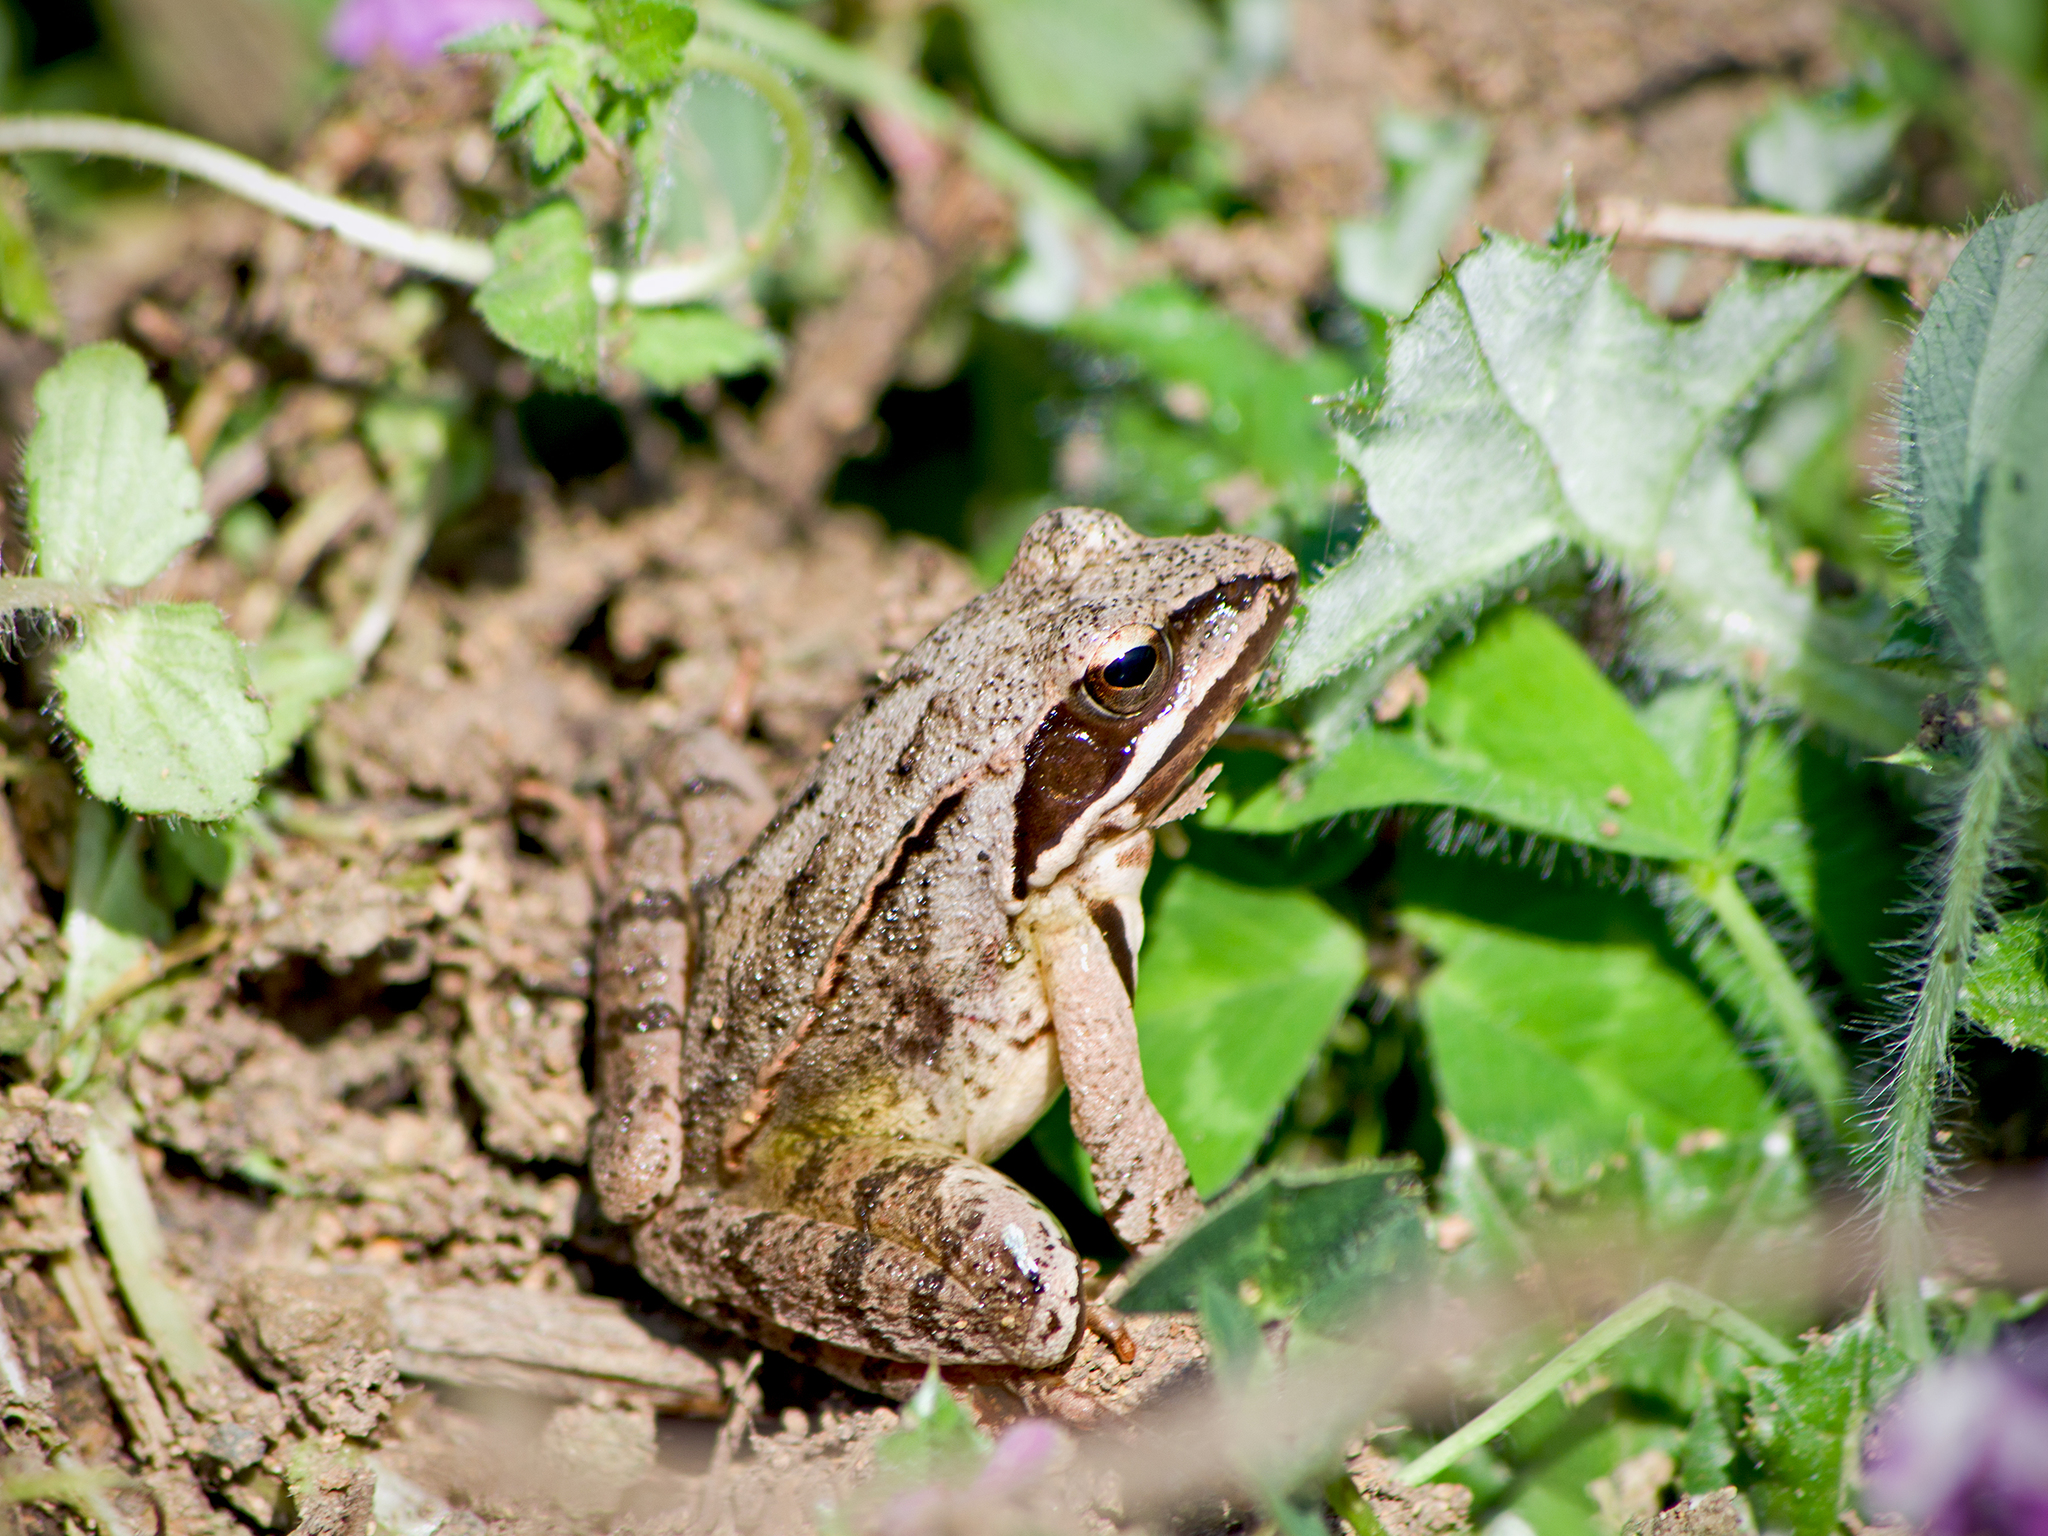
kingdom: Animalia
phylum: Chordata
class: Amphibia
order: Anura
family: Ranidae
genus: Rana
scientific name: Rana dalmatina
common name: Agile frog
